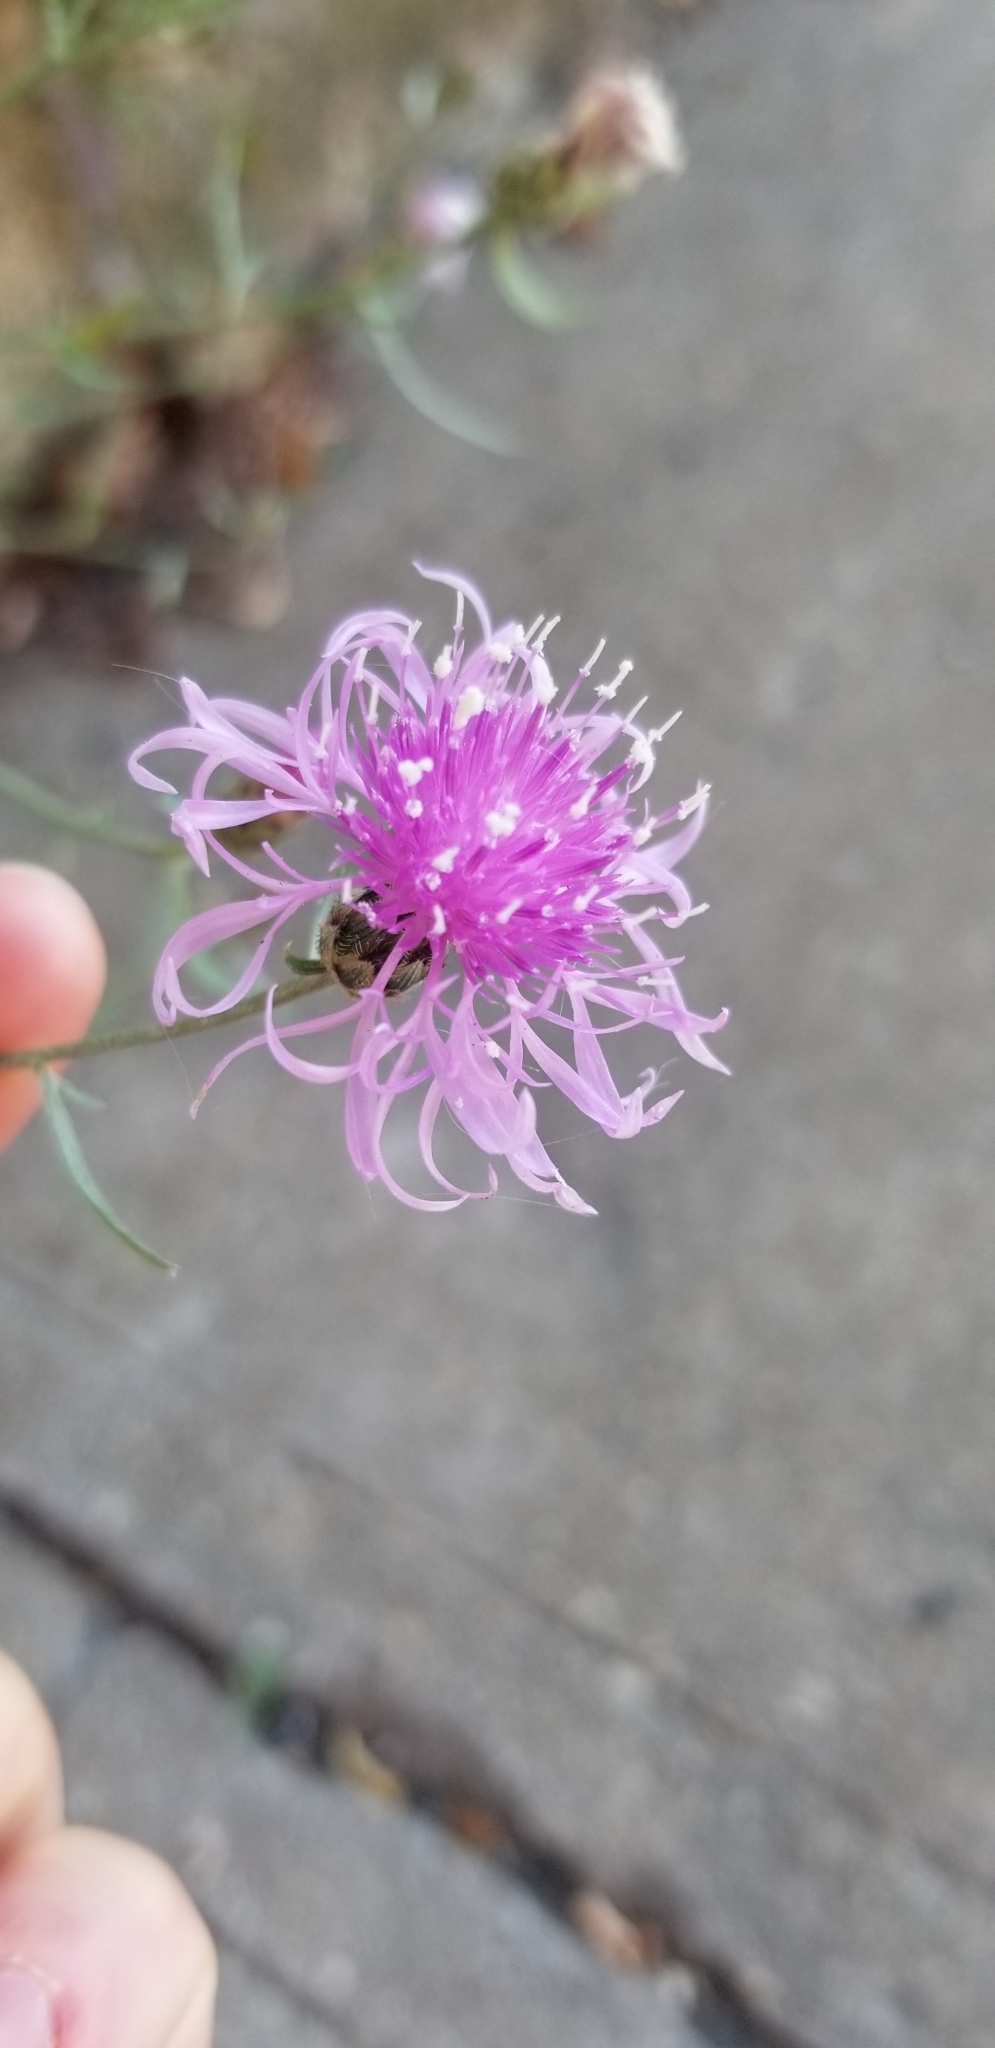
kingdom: Plantae
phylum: Tracheophyta
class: Magnoliopsida
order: Asterales
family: Asteraceae
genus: Centaurea
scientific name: Centaurea stoebe
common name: Spotted knapweed
